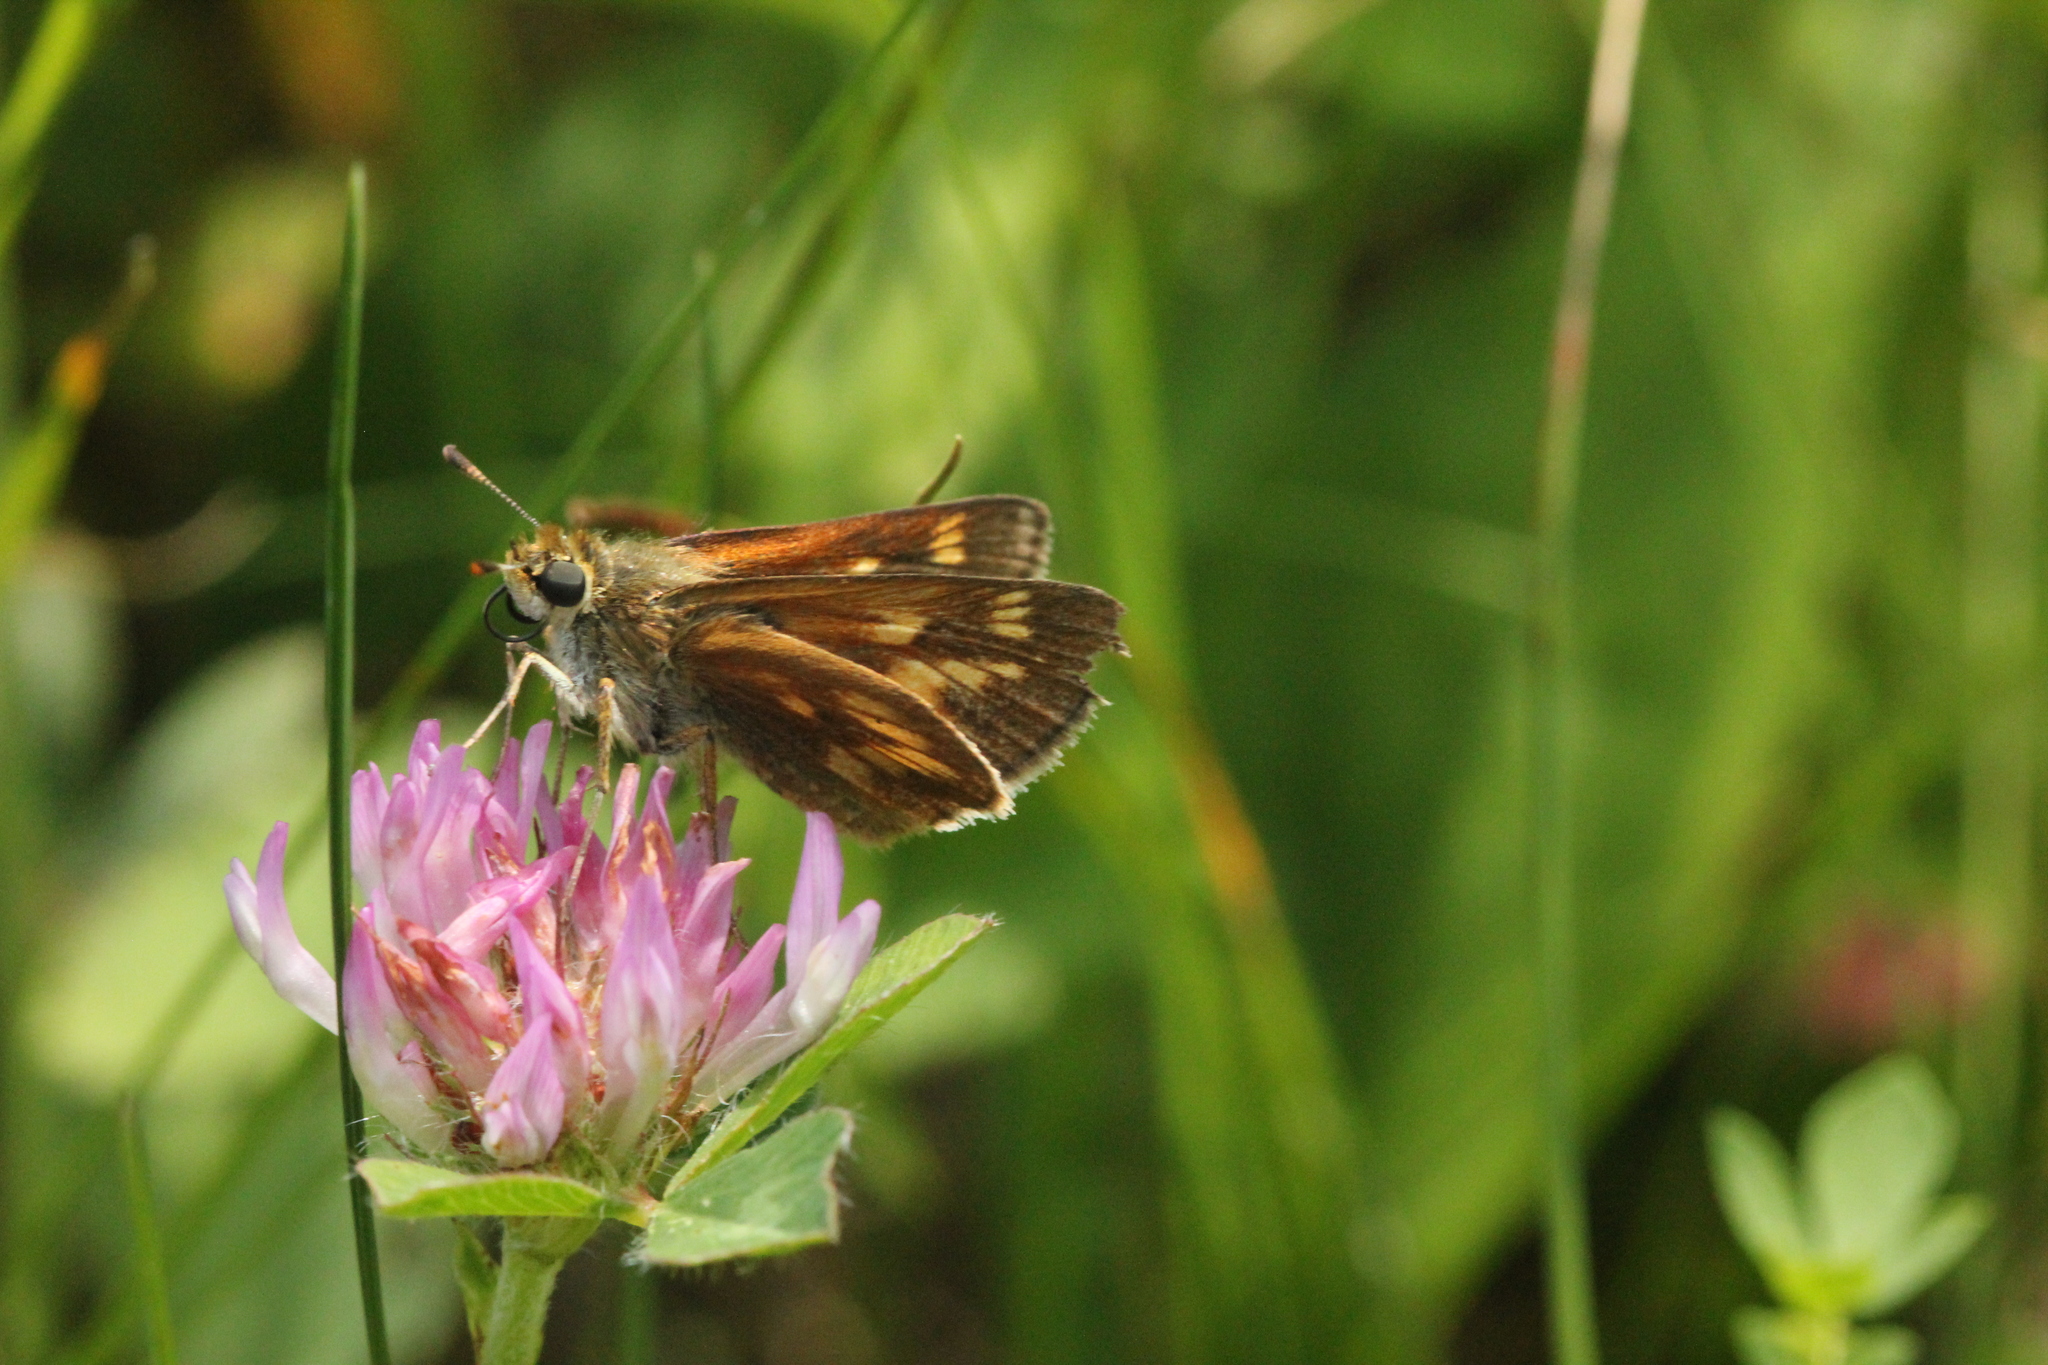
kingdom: Animalia
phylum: Arthropoda
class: Insecta
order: Lepidoptera
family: Hesperiidae
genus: Polites
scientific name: Polites mystic
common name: Long dash
